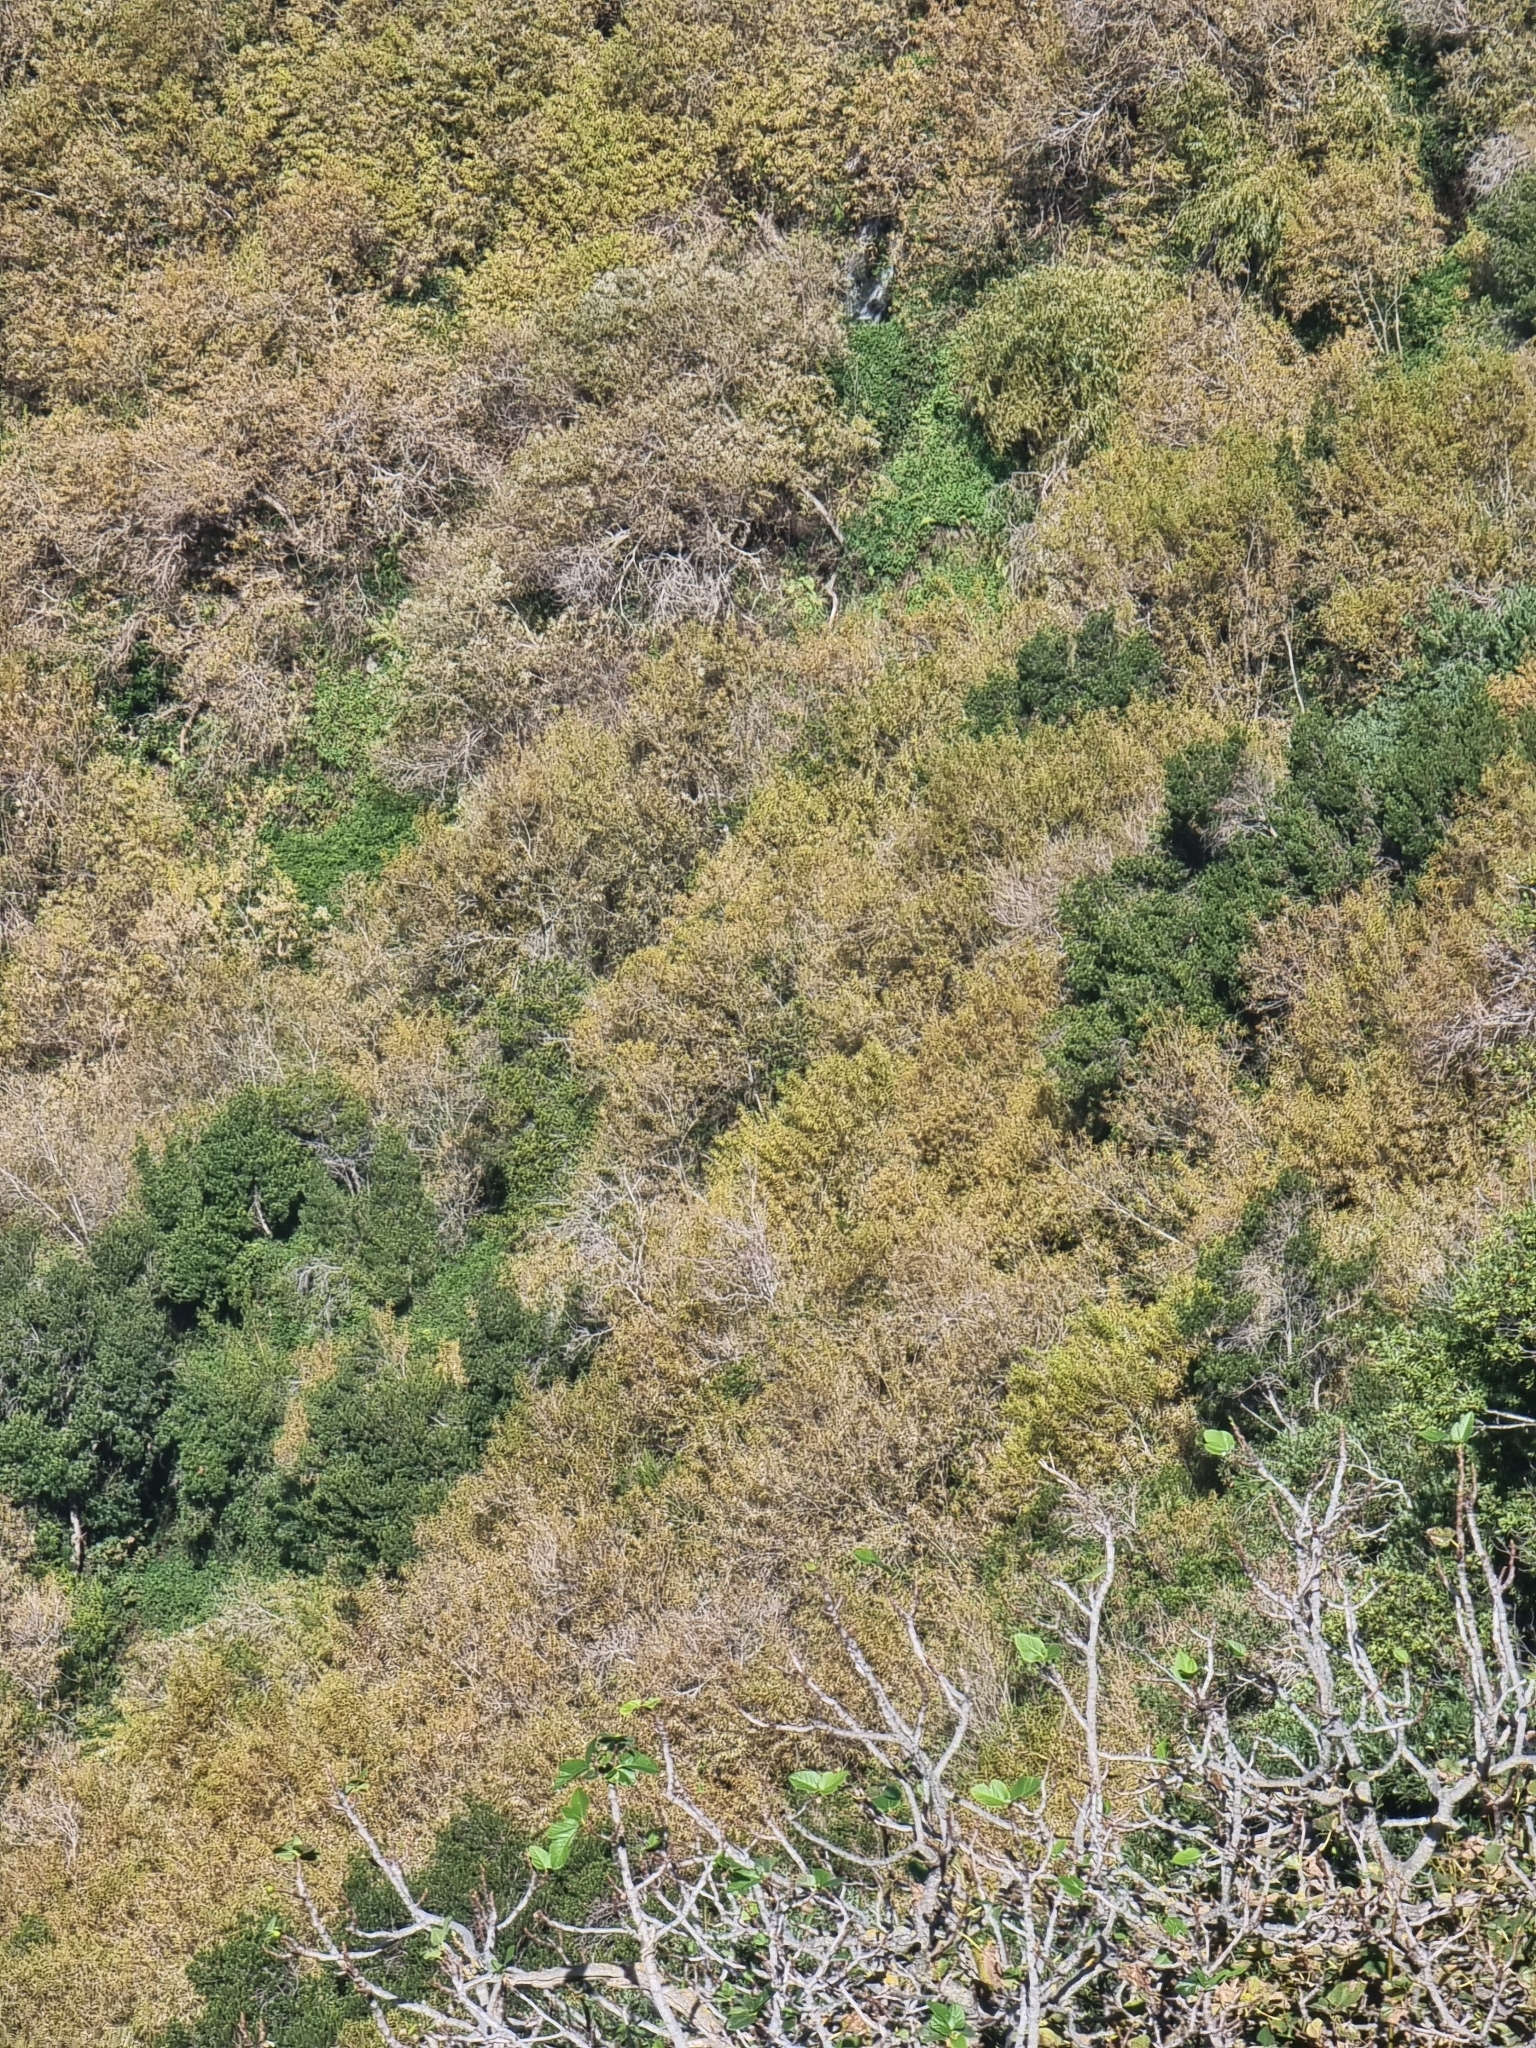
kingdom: Plantae
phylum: Tracheophyta
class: Magnoliopsida
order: Malpighiales
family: Salicaceae
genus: Salix
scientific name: Salix canariensis
